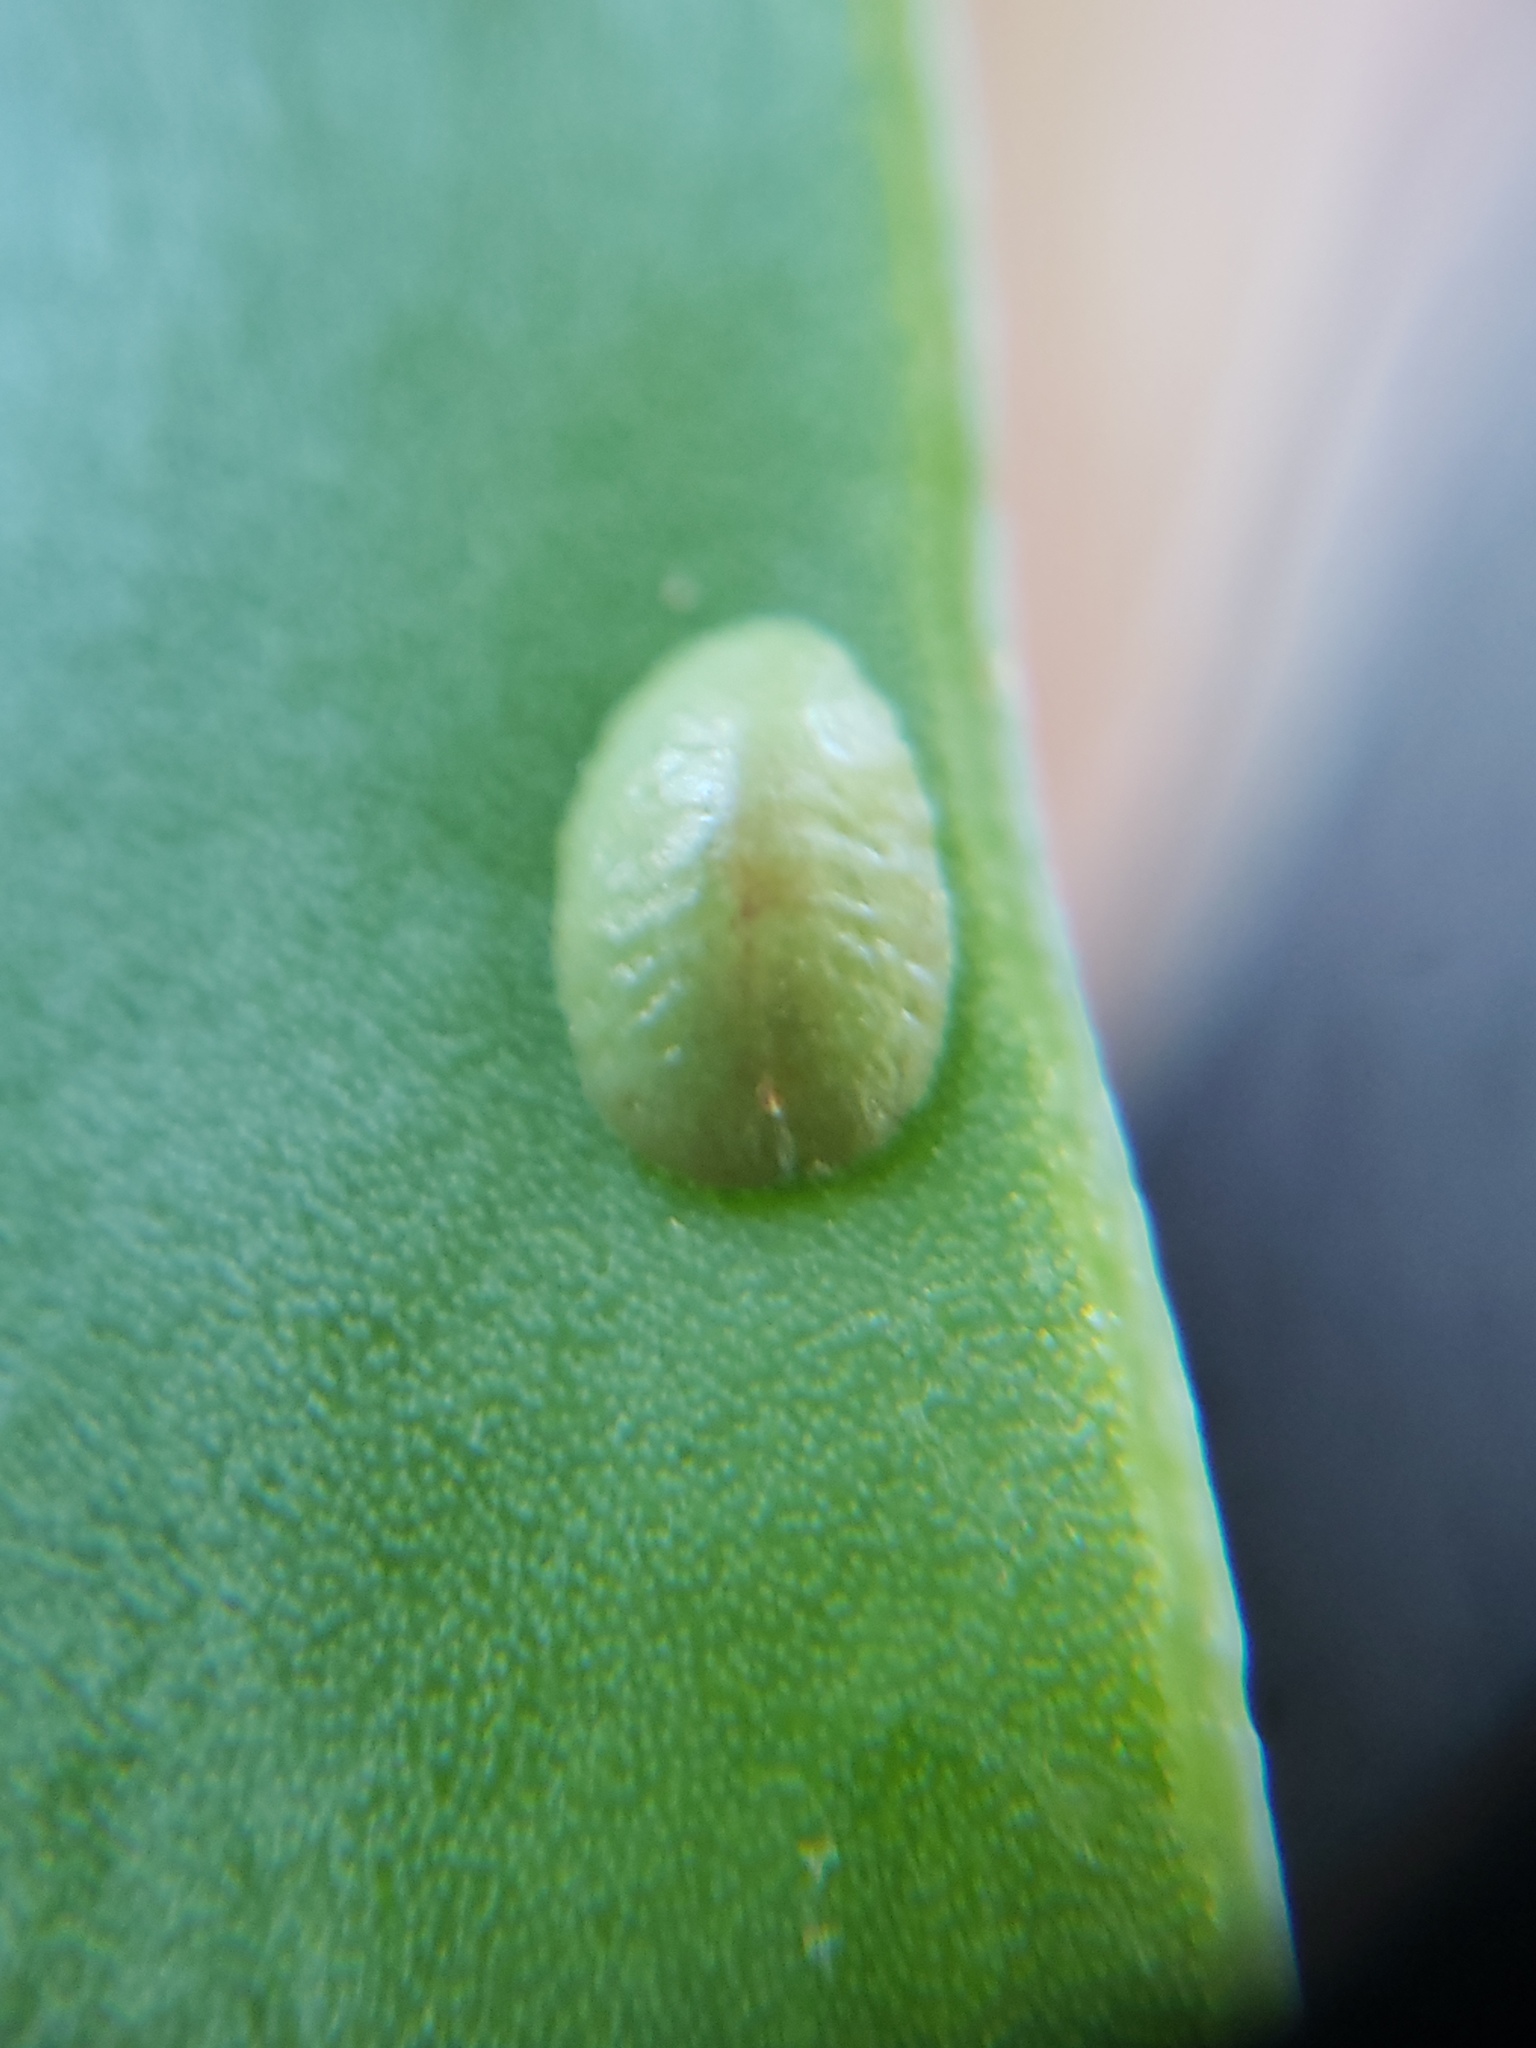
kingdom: Animalia
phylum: Arthropoda
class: Insecta
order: Hemiptera
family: Coccidae
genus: Pulvinariella
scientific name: Pulvinariella mesembryanthemi
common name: Cottony pigface scale
